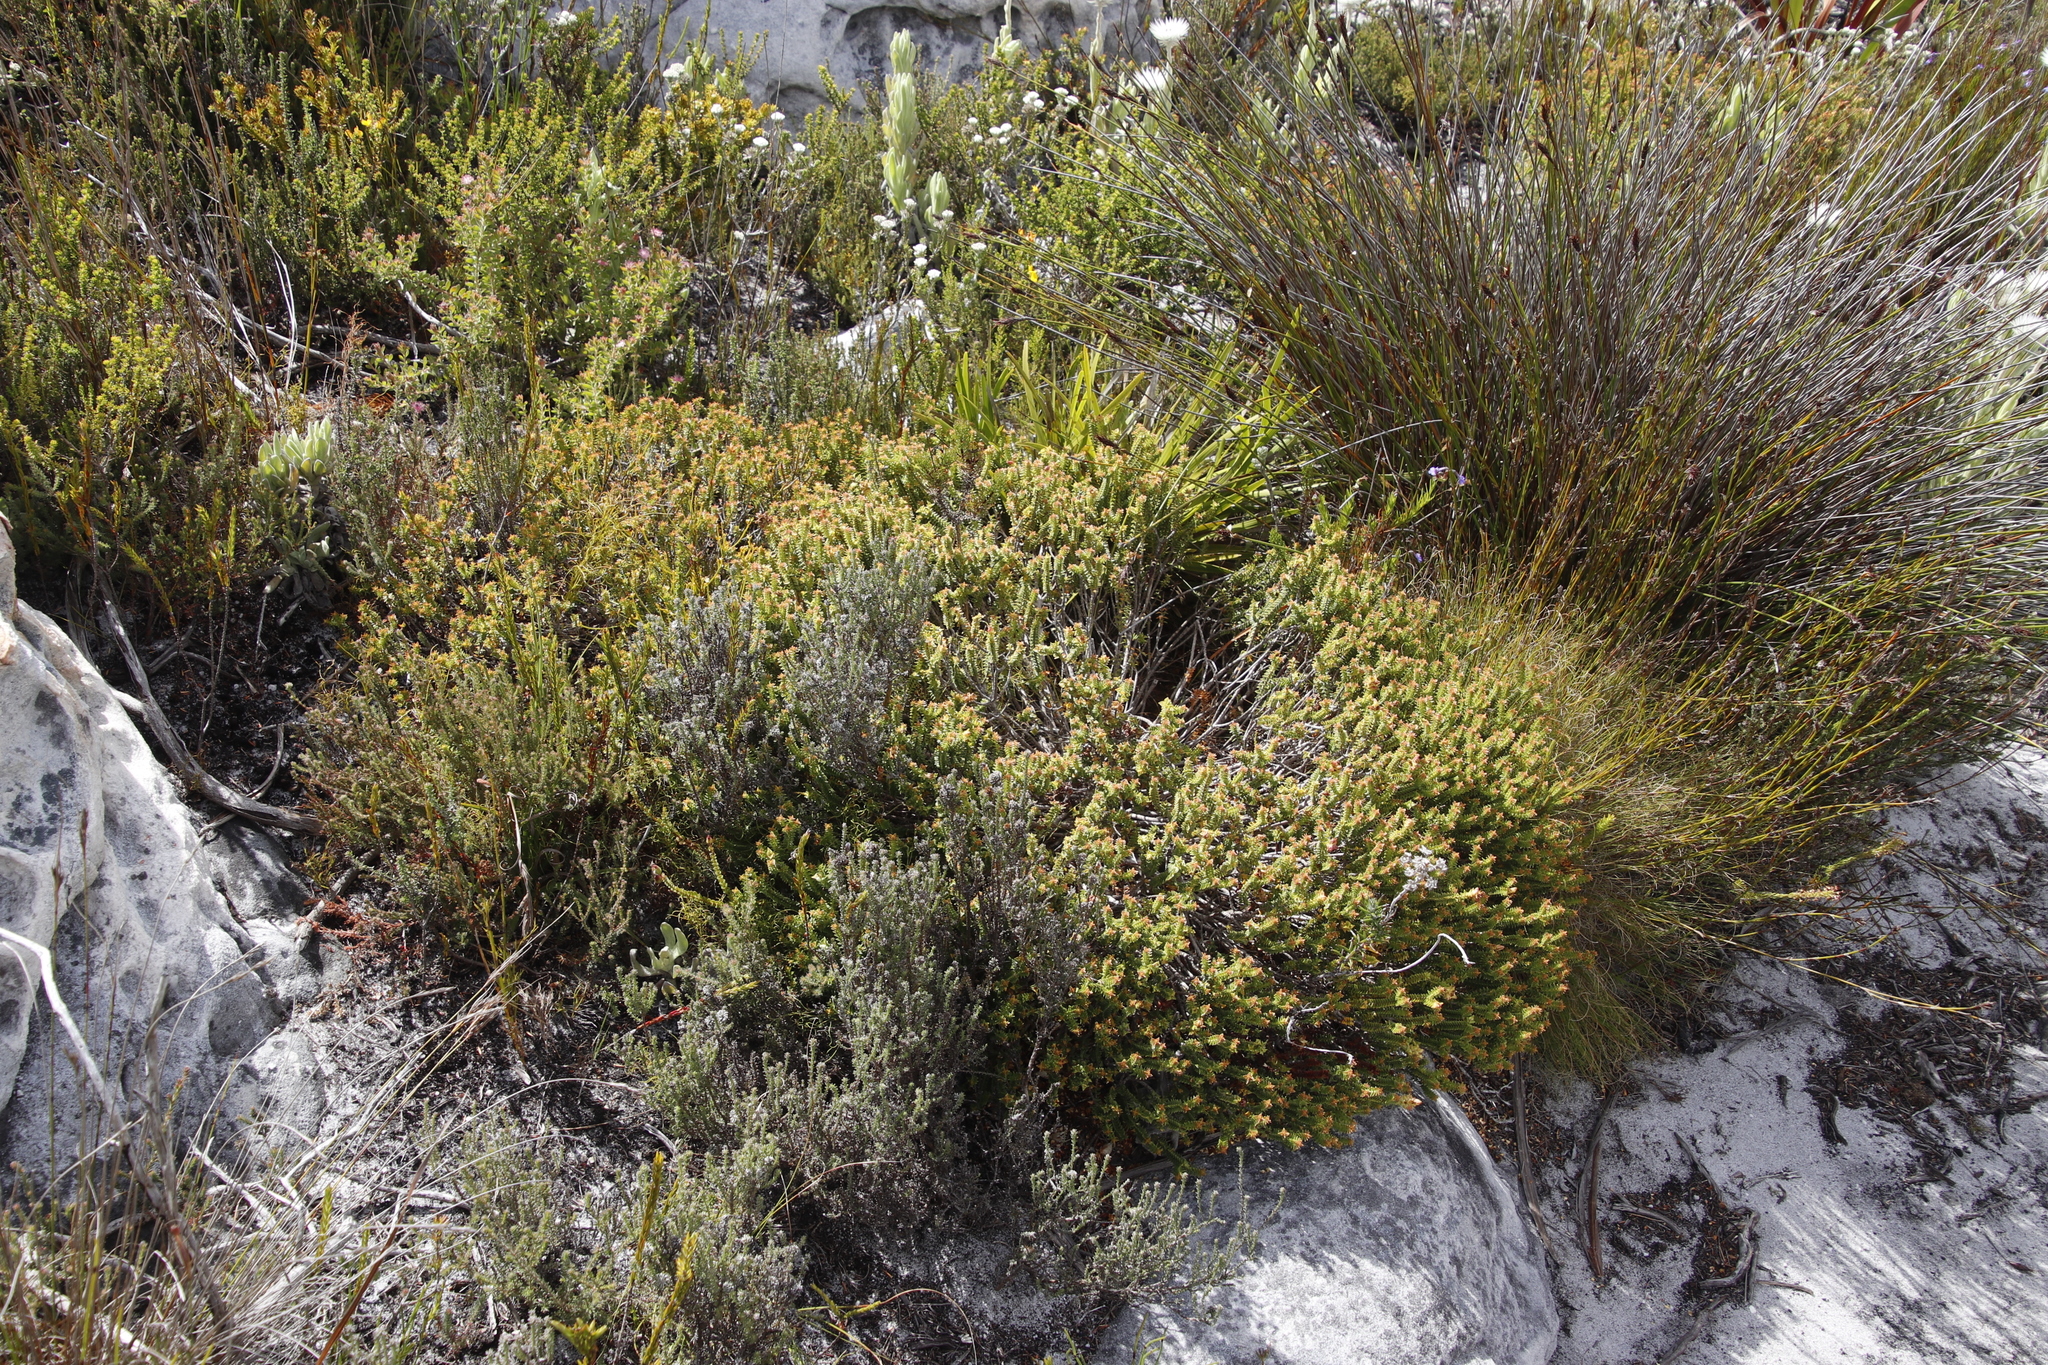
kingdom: Plantae
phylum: Tracheophyta
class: Magnoliopsida
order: Myrtales
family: Penaeaceae
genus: Penaea
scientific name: Penaea mucronata
